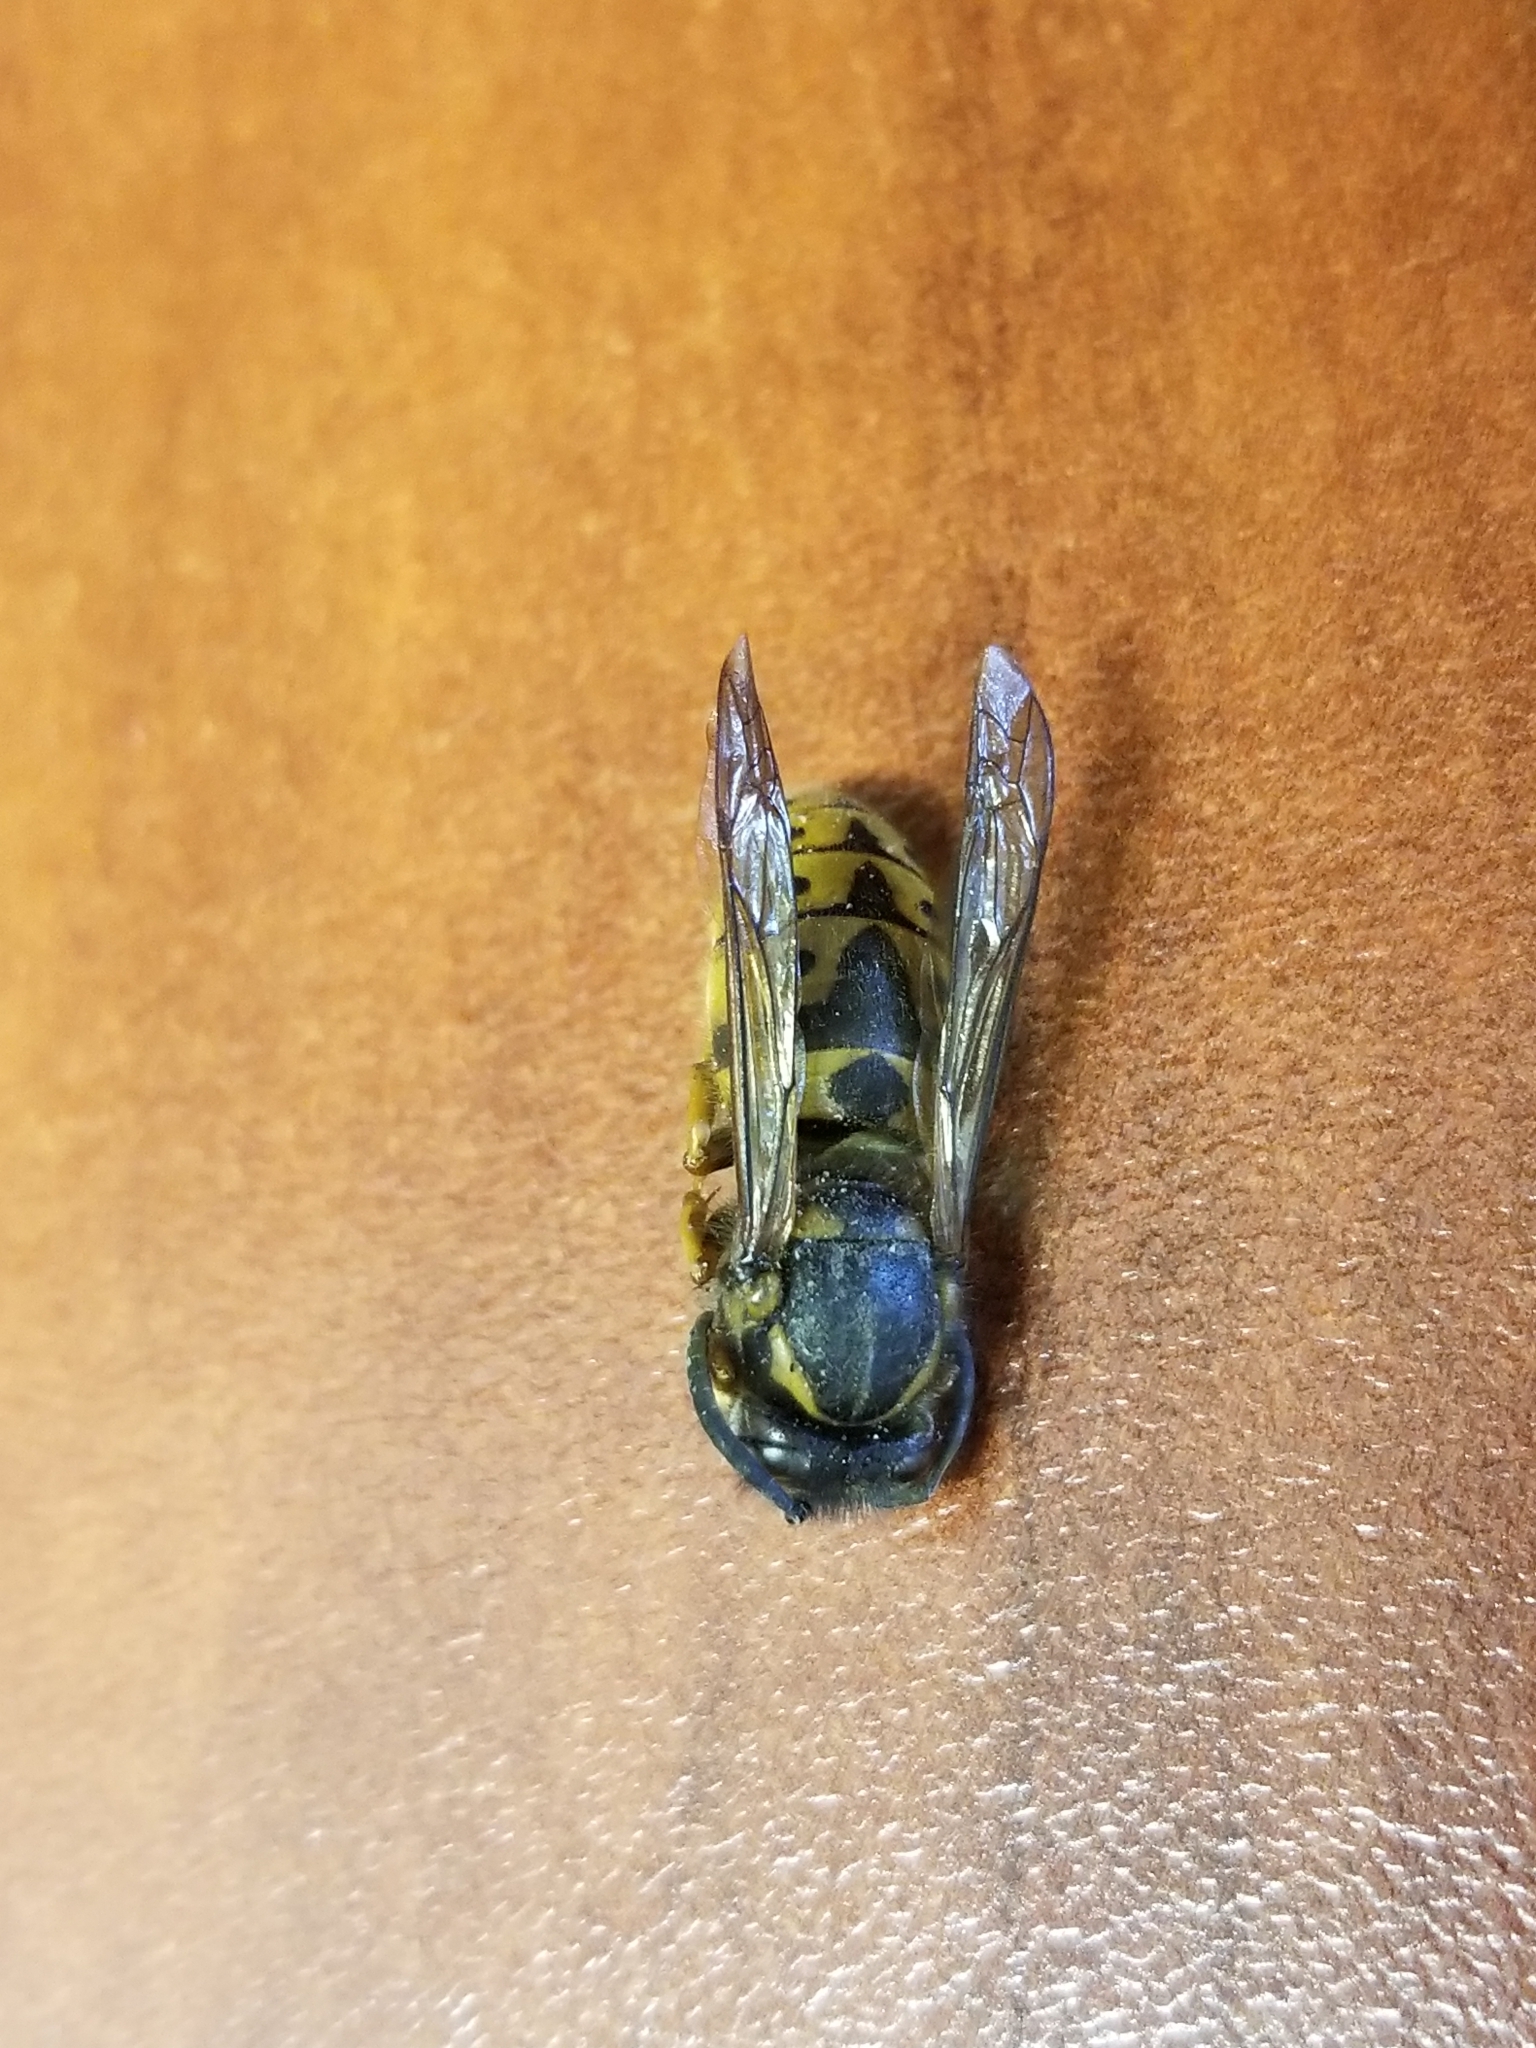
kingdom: Animalia
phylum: Arthropoda
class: Insecta
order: Hymenoptera
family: Vespidae
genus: Vespula
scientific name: Vespula germanica
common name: German wasp
